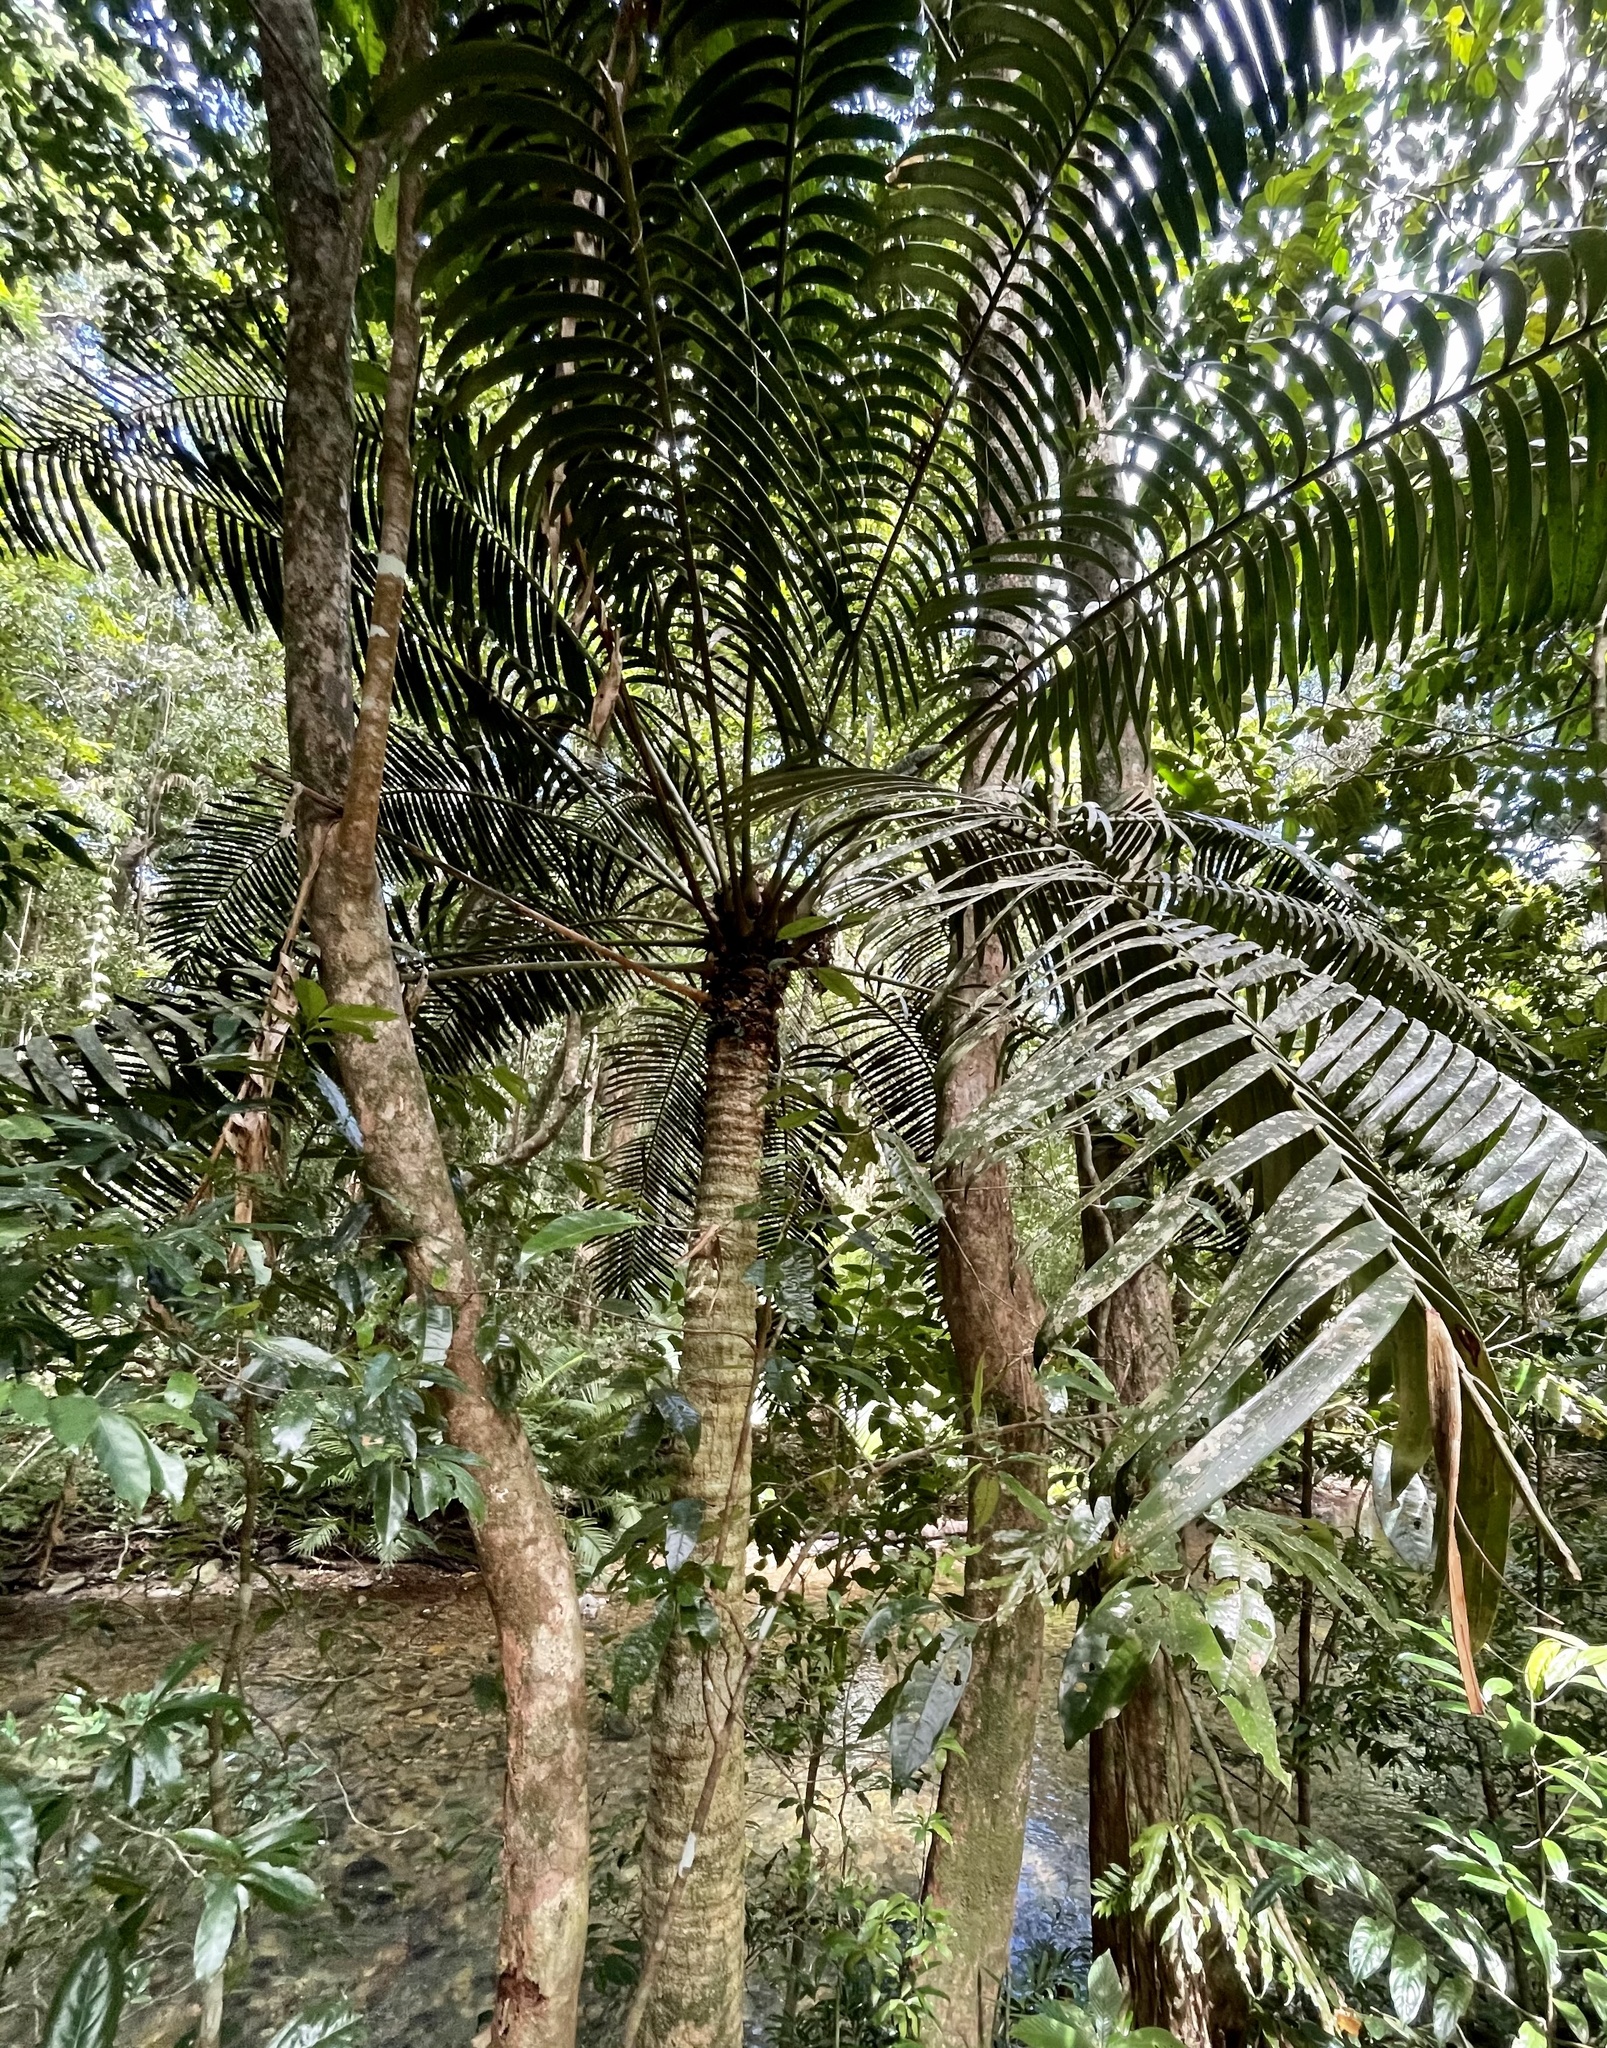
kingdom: Plantae
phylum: Tracheophyta
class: Cycadopsida
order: Cycadales
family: Zamiaceae
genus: Lepidozamia
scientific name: Lepidozamia hopei
